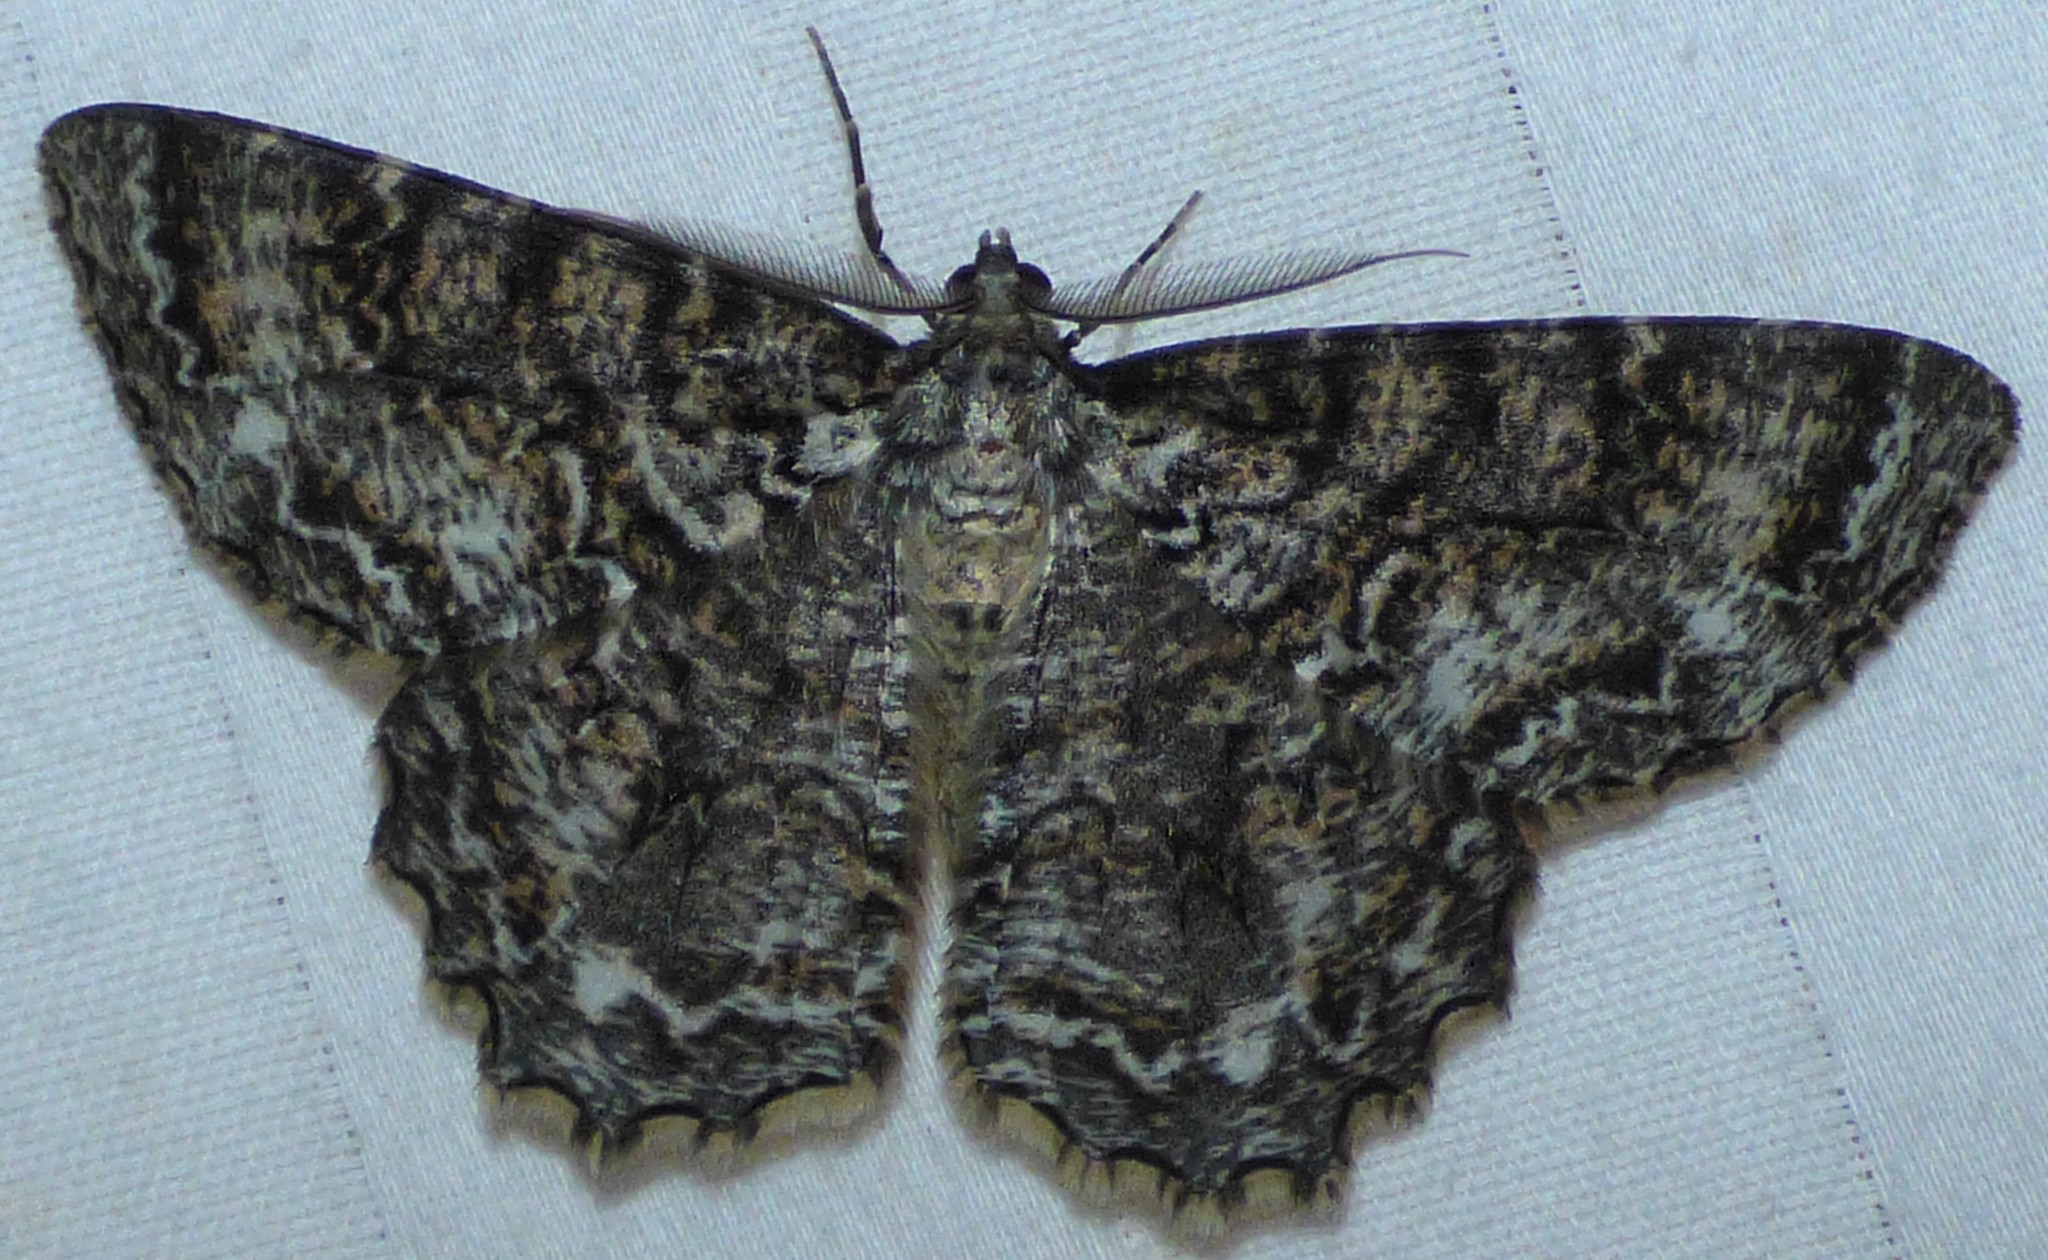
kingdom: Animalia
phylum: Arthropoda
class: Insecta
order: Lepidoptera
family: Geometridae
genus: Epimecis
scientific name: Epimecis hortaria
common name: Tulip-tree beauty
